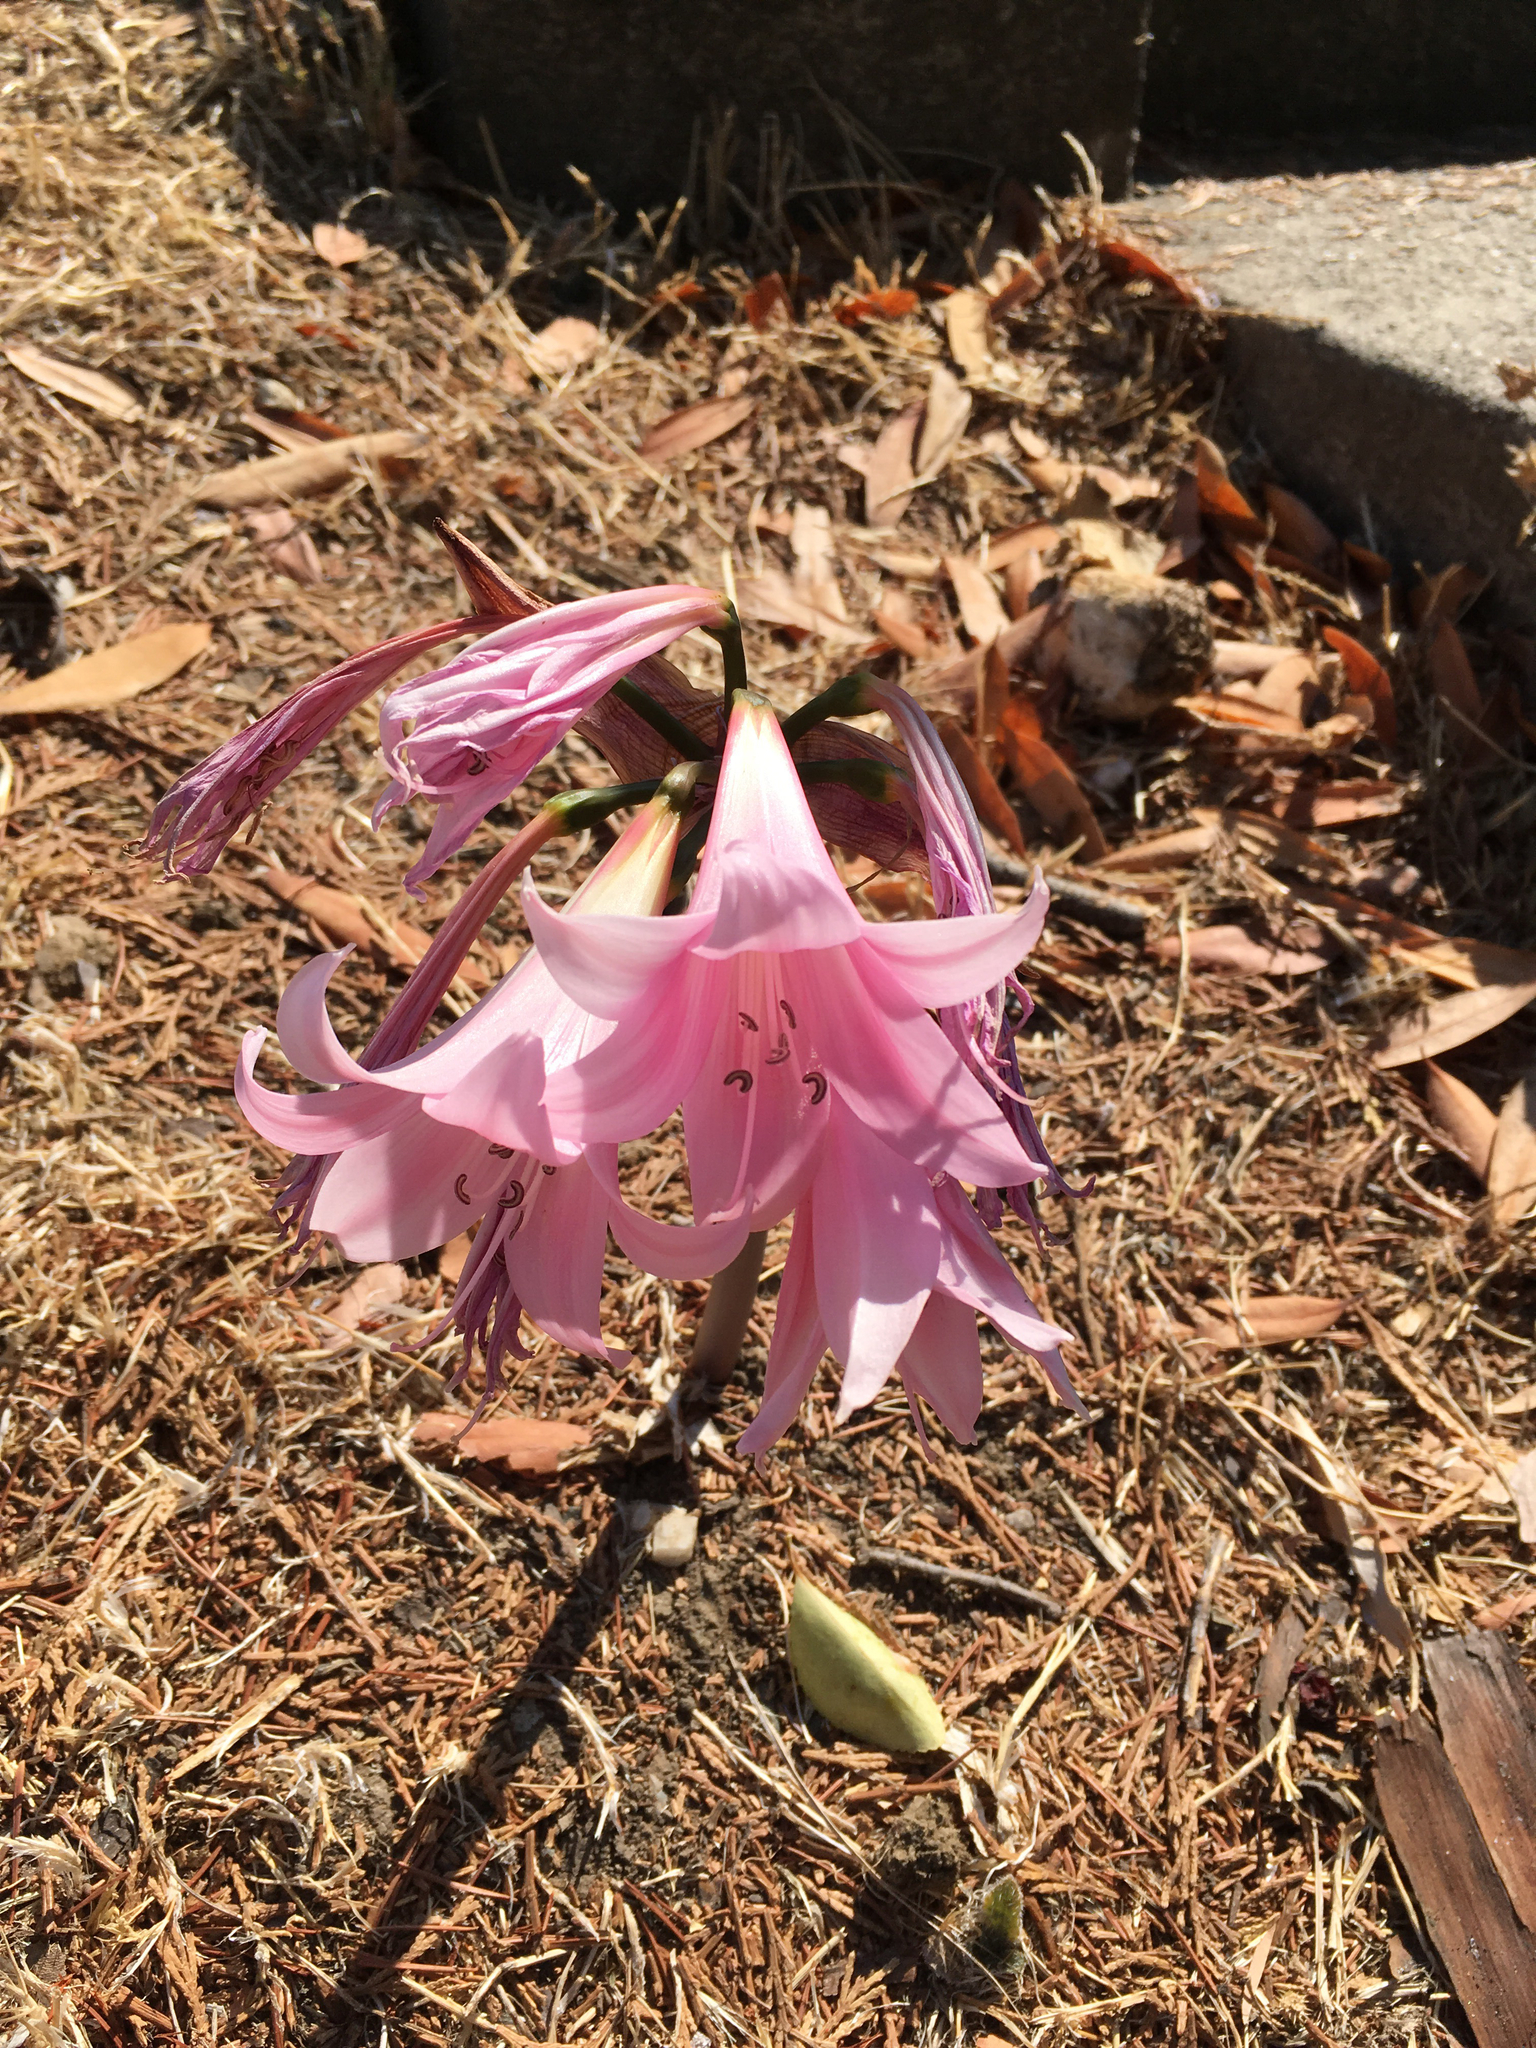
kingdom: Plantae
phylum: Tracheophyta
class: Liliopsida
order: Asparagales
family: Amaryllidaceae
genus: Amaryllis
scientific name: Amaryllis belladonna
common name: Jersey lily
